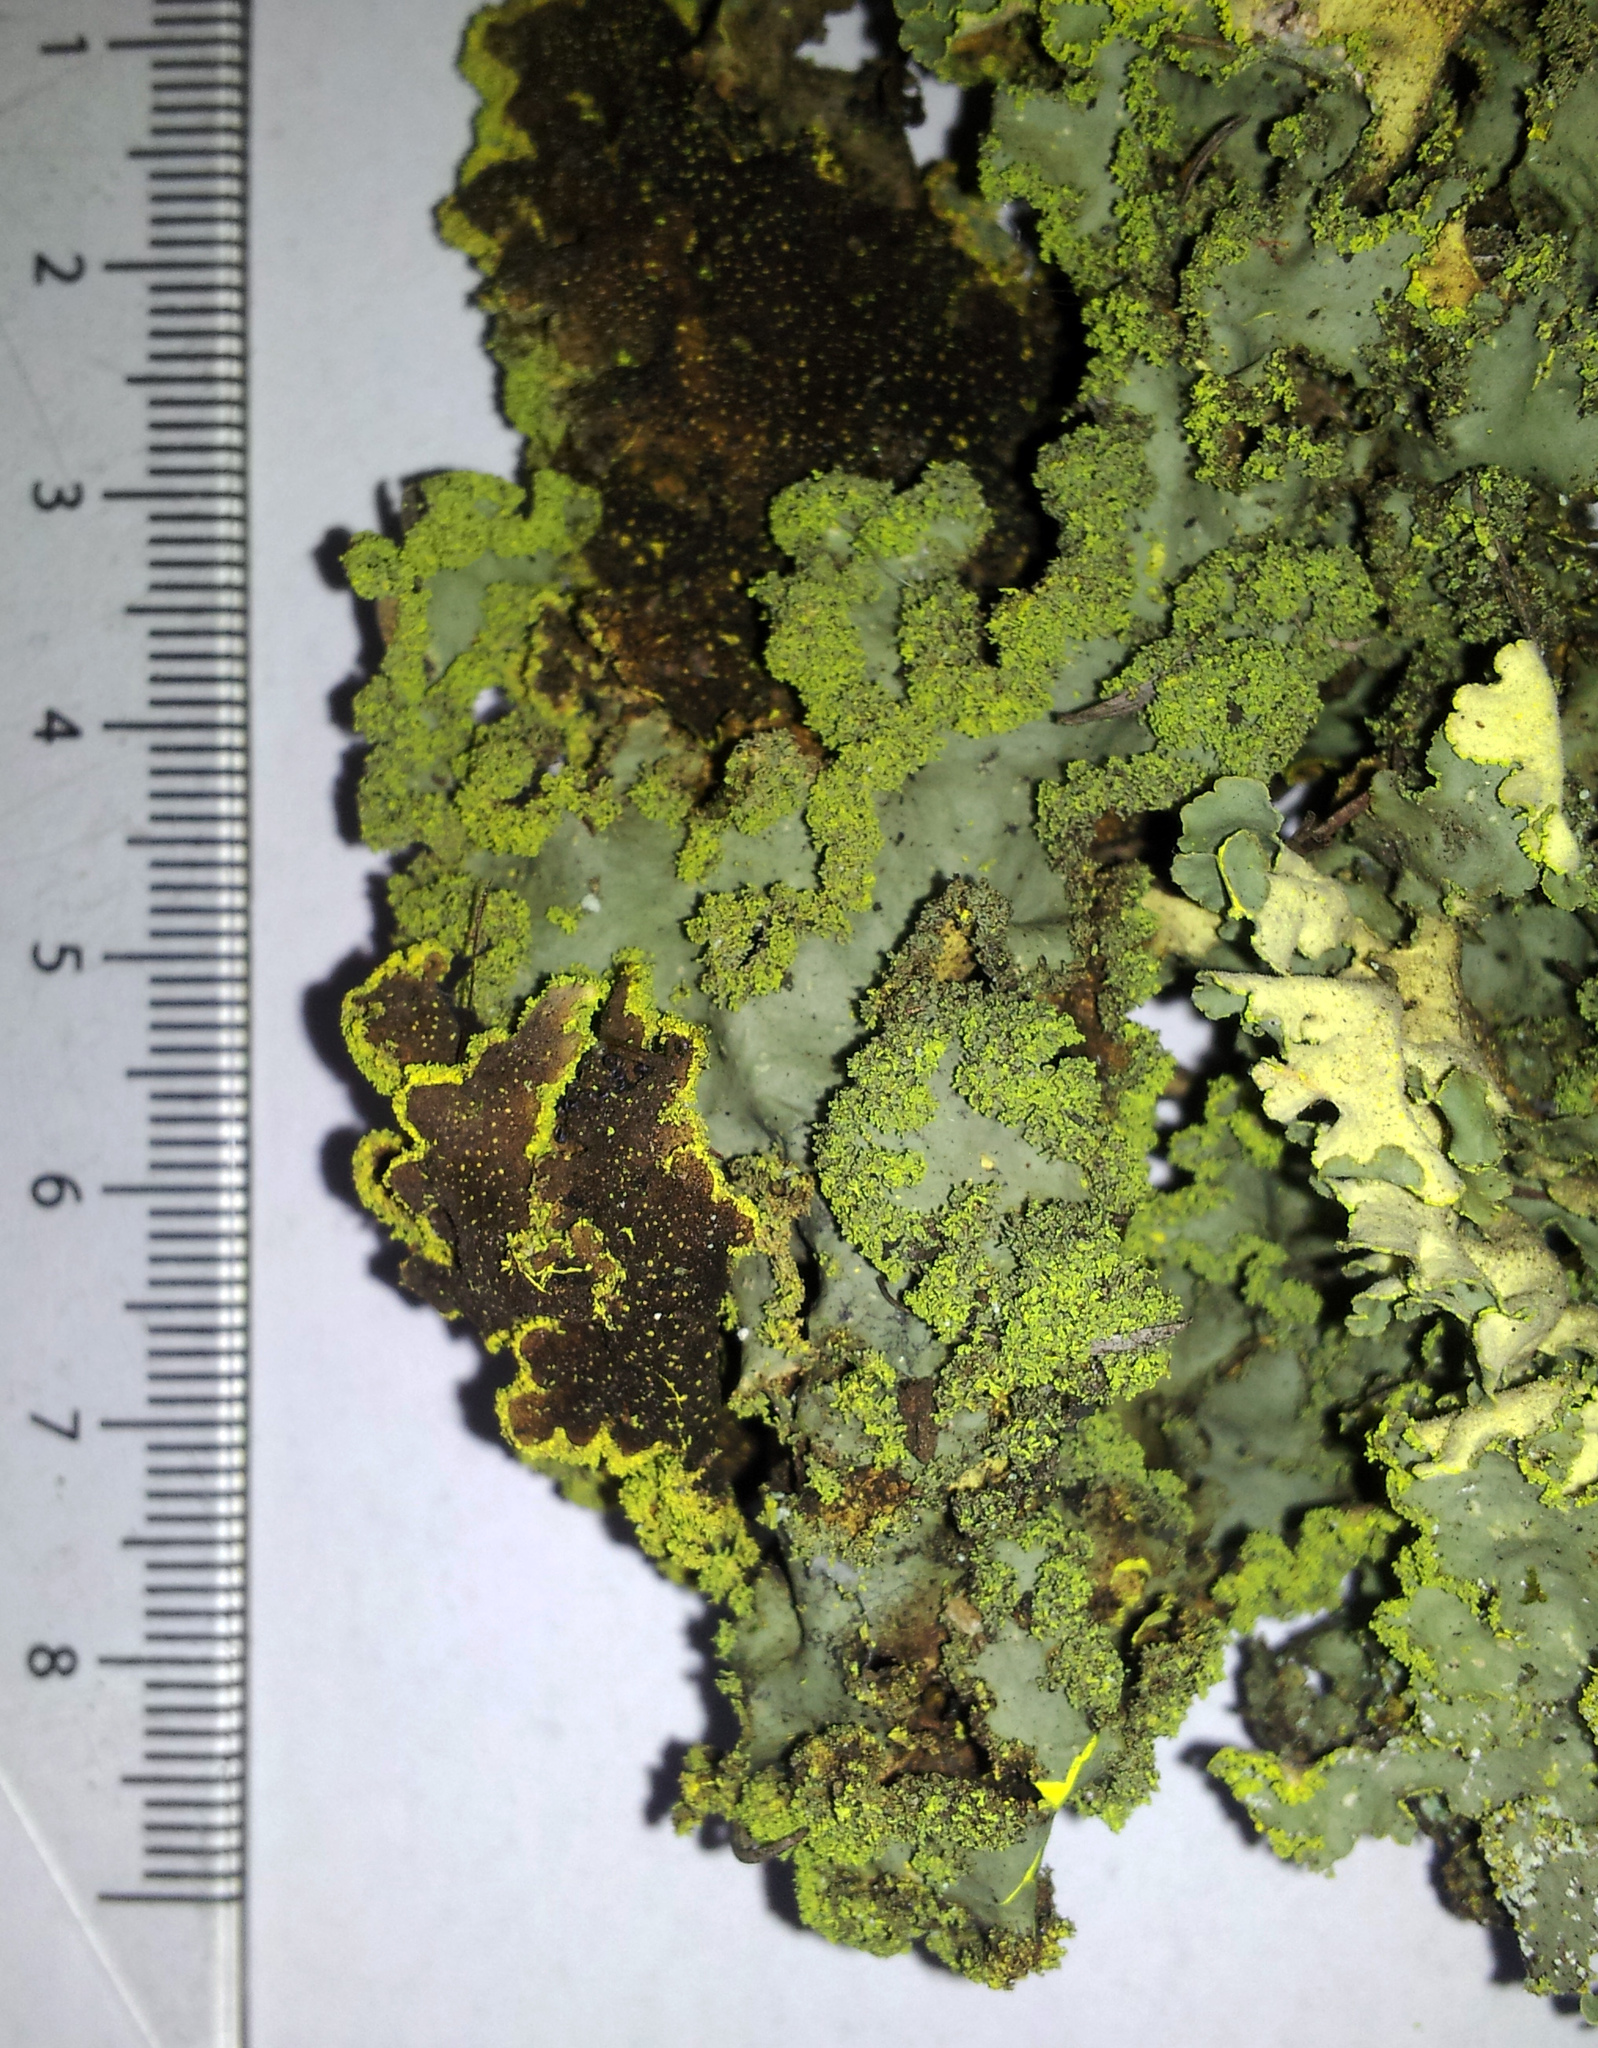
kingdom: Fungi
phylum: Ascomycota
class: Lecanoromycetes
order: Peltigerales
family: Lobariaceae
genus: Crocodia
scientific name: Crocodia poculifera
